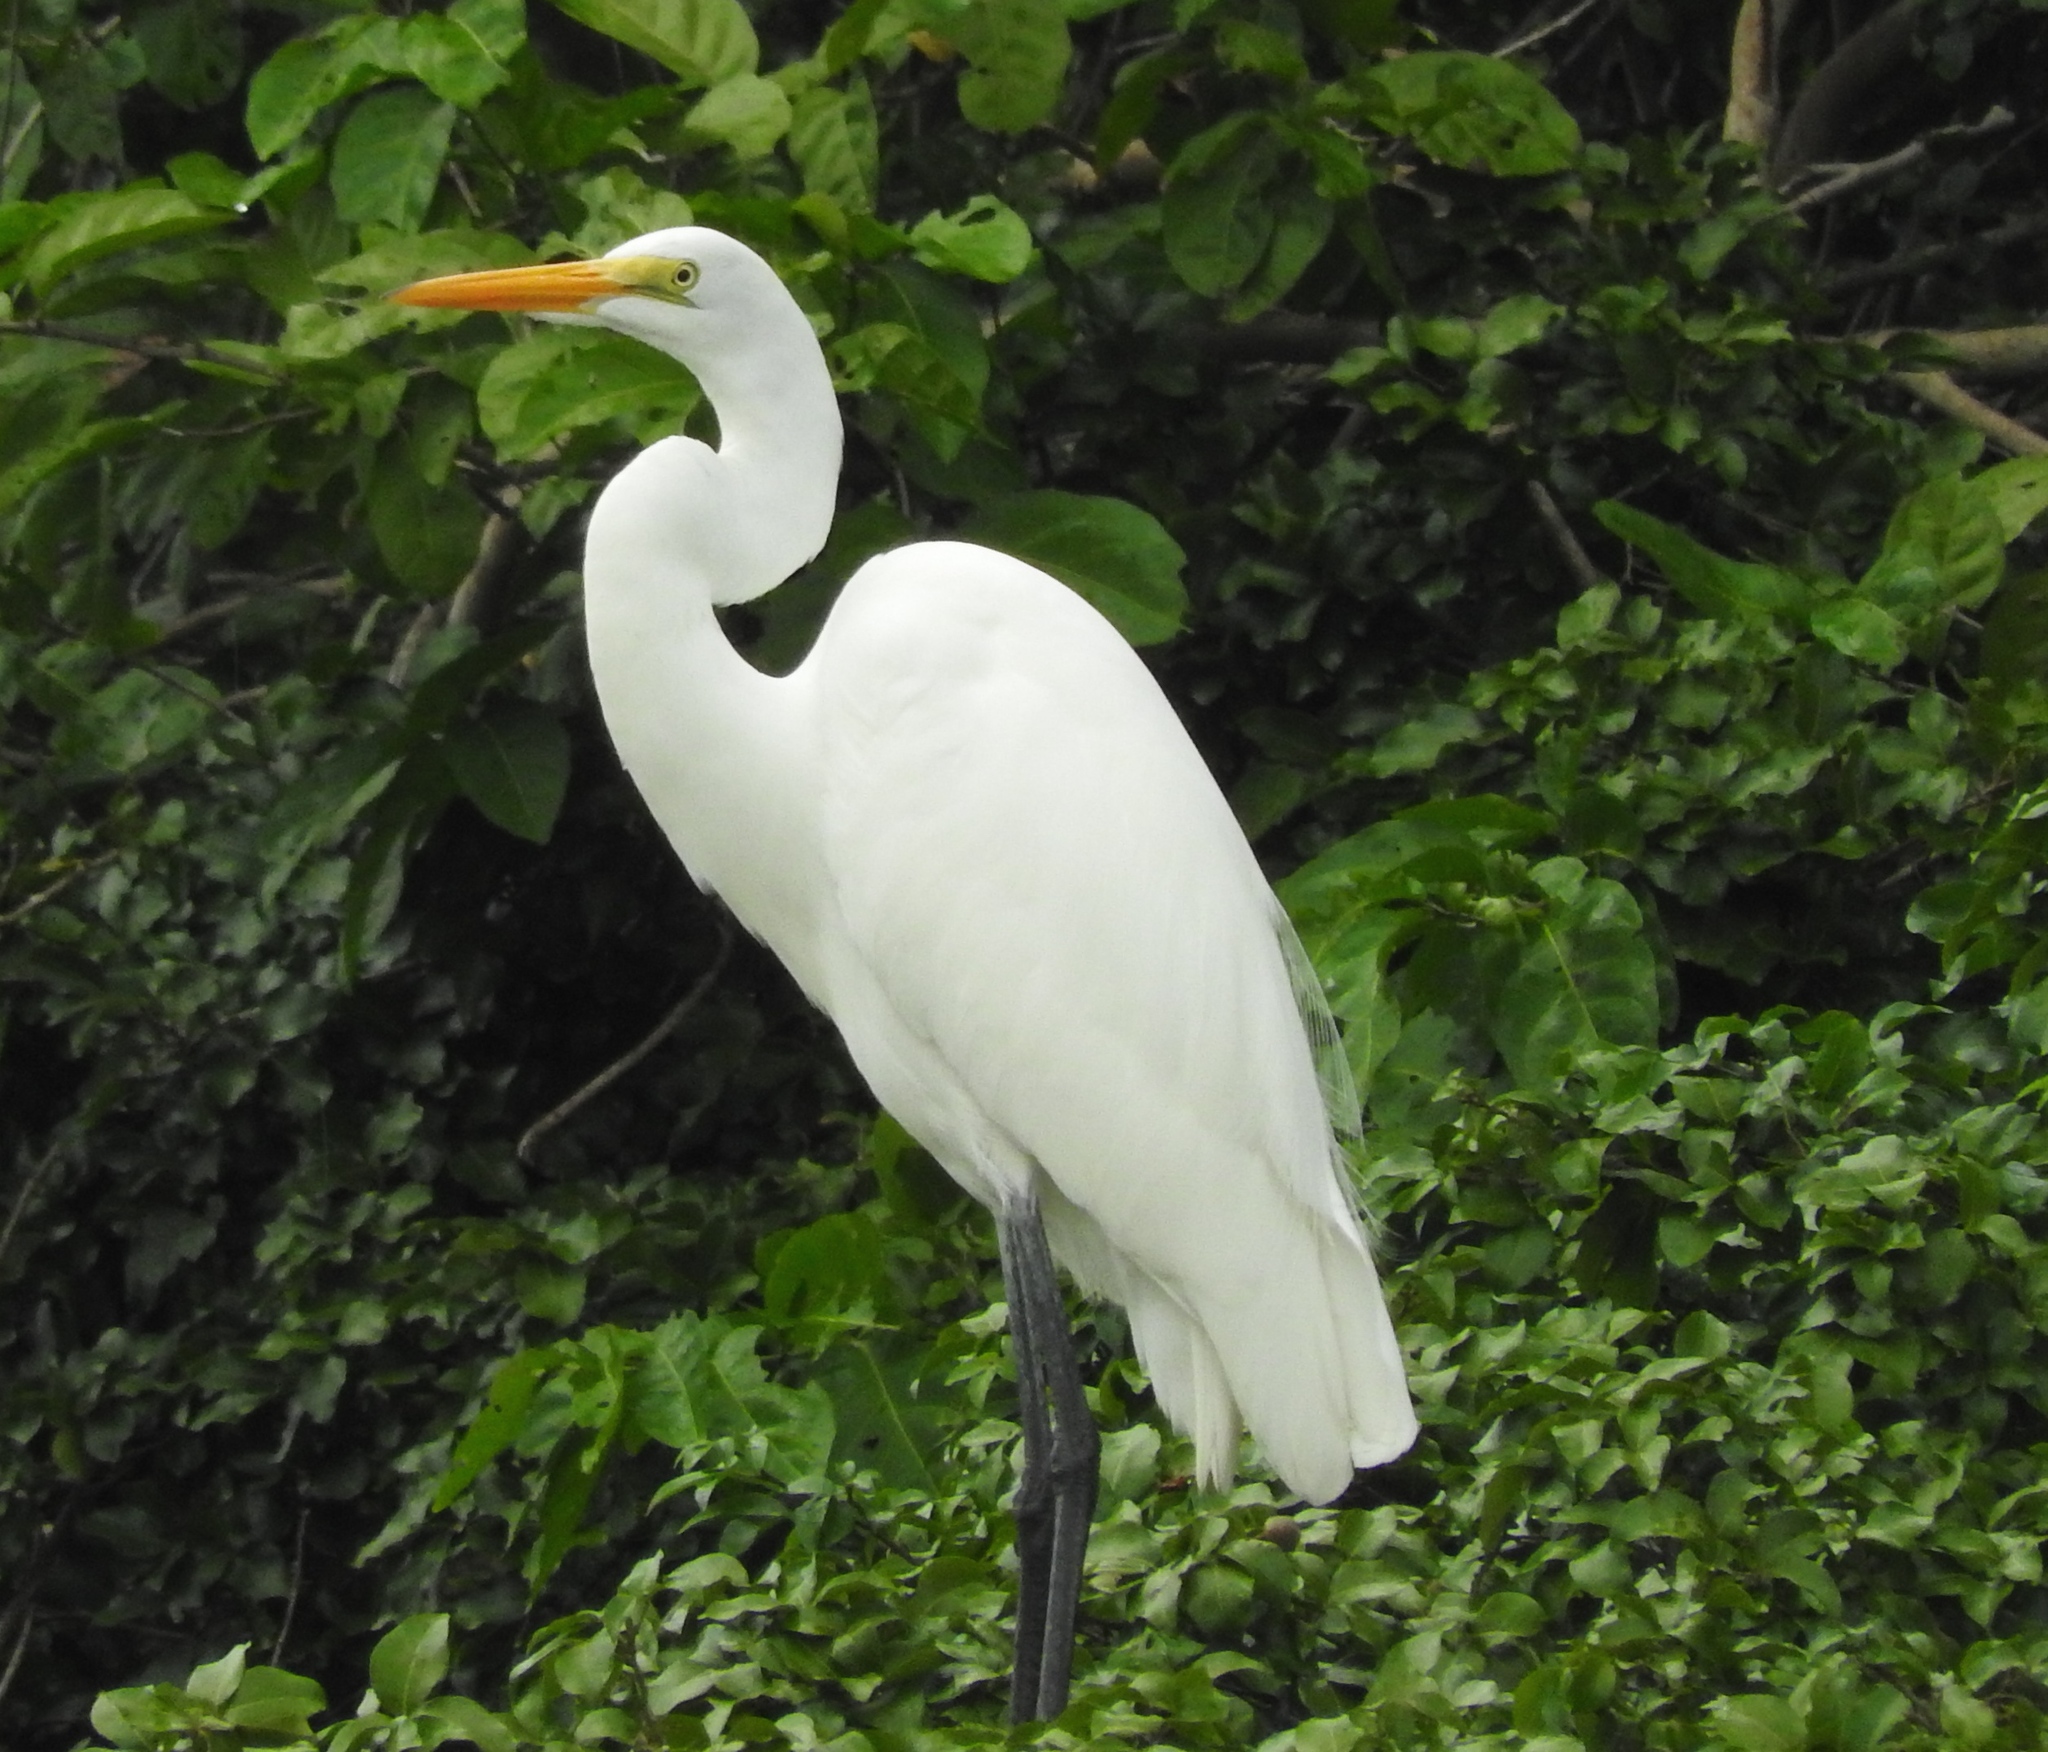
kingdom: Animalia
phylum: Chordata
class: Aves
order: Pelecaniformes
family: Ardeidae
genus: Ardea
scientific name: Ardea alba
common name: Great egret
